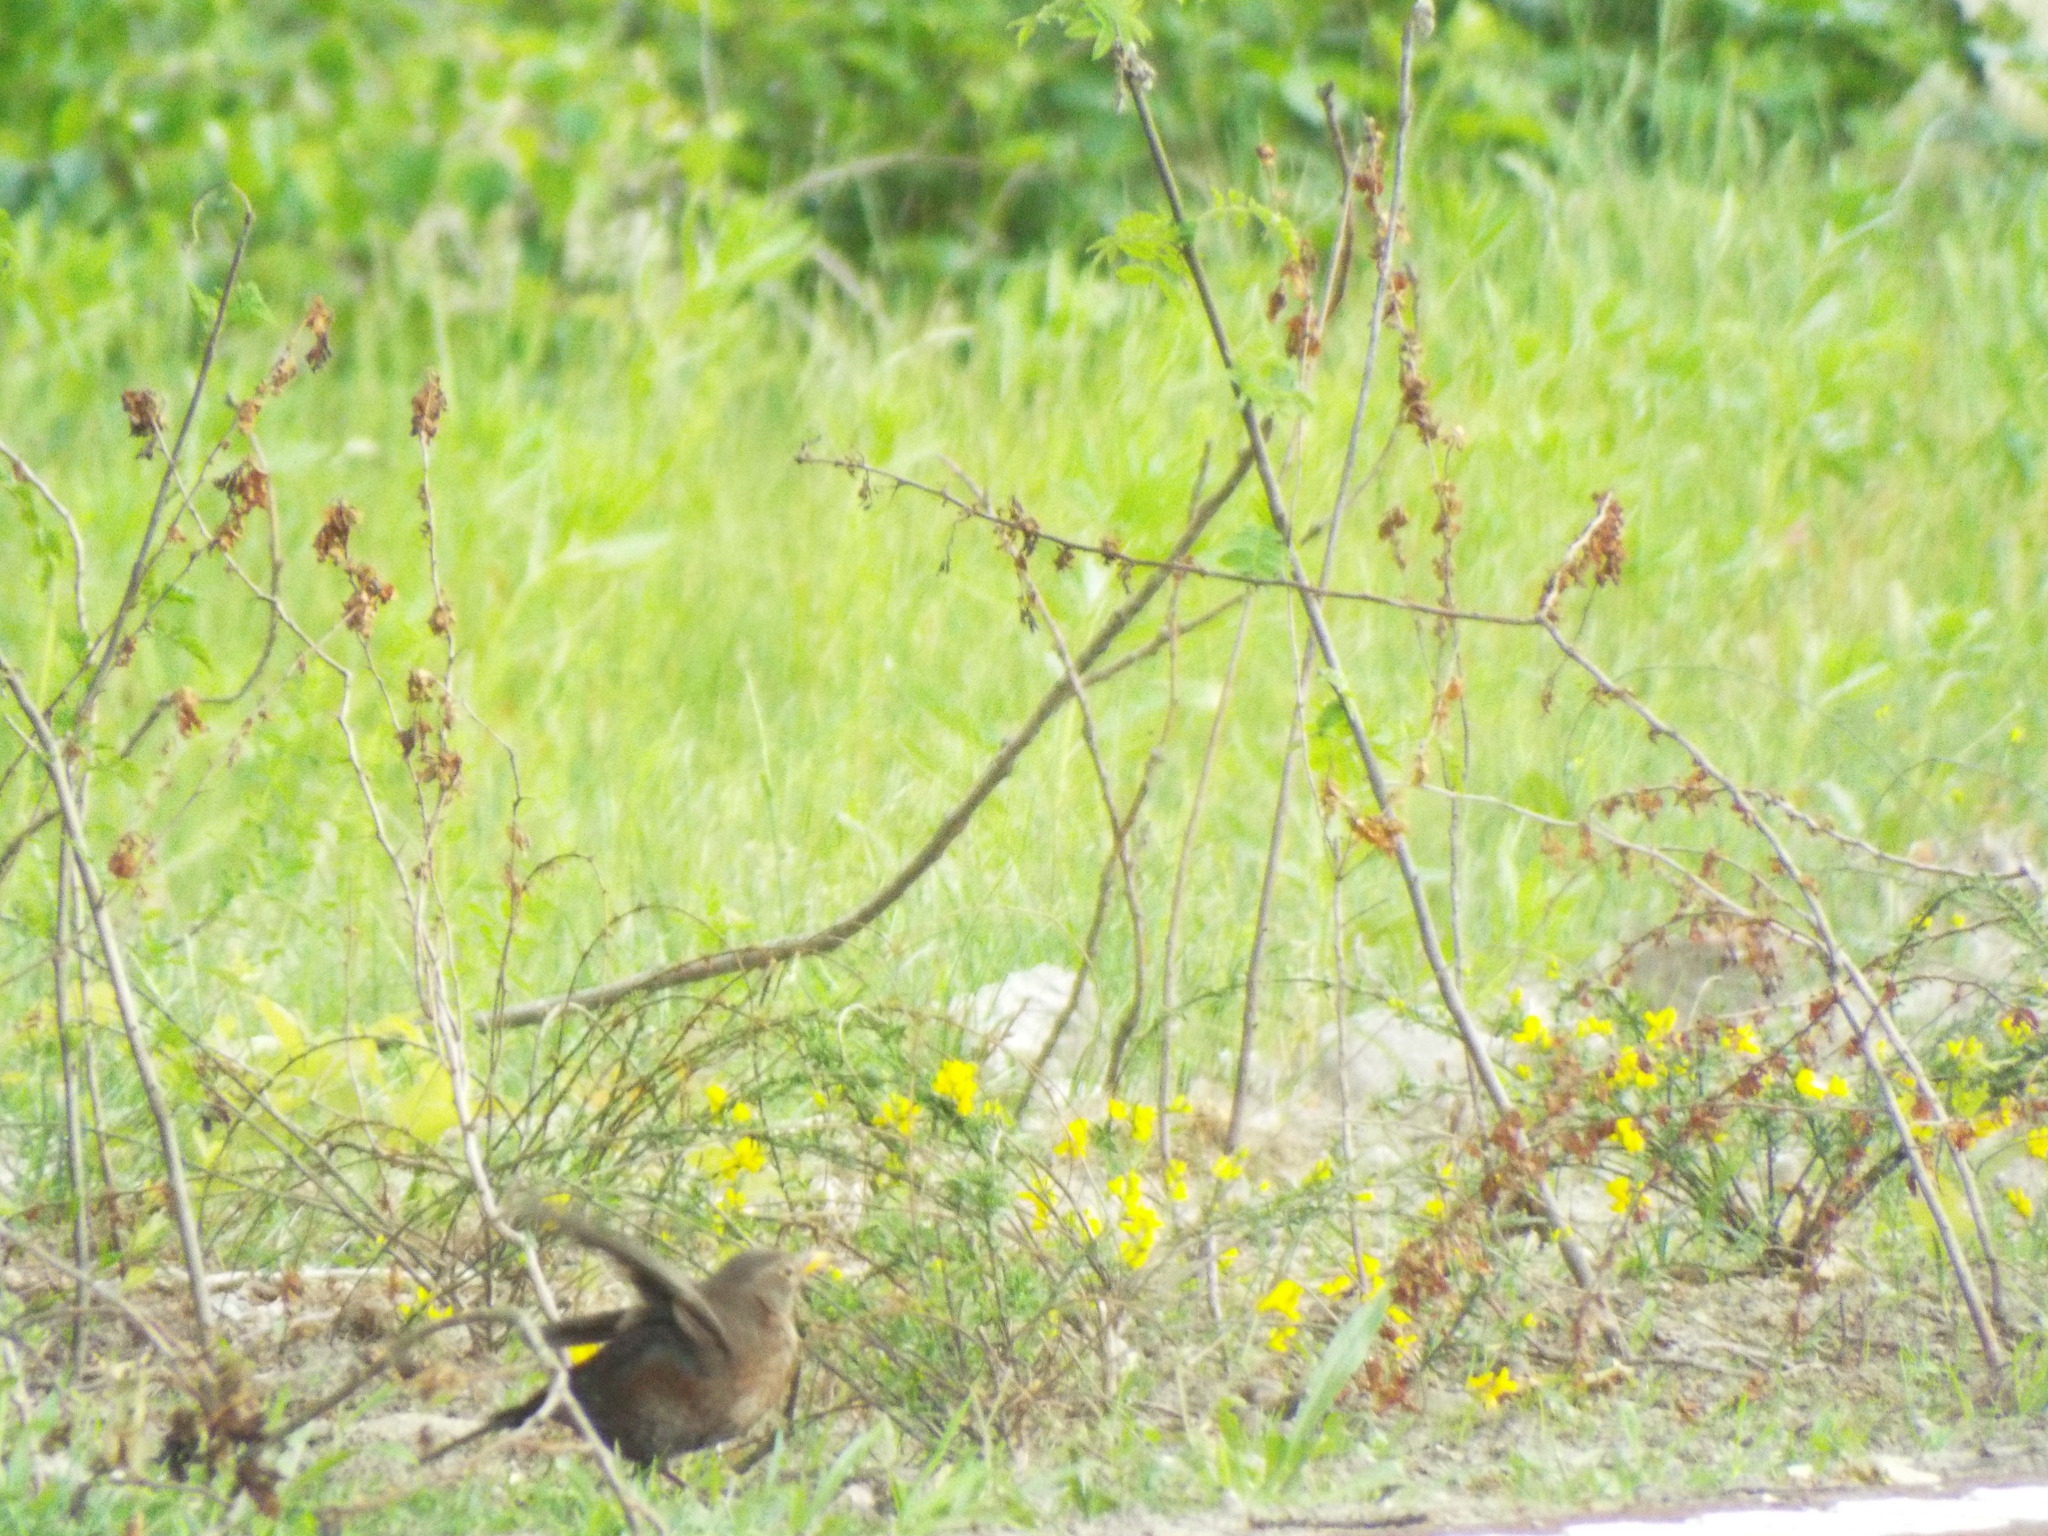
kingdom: Animalia
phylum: Chordata
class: Aves
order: Passeriformes
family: Turdidae
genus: Turdus
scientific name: Turdus merula
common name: Common blackbird
